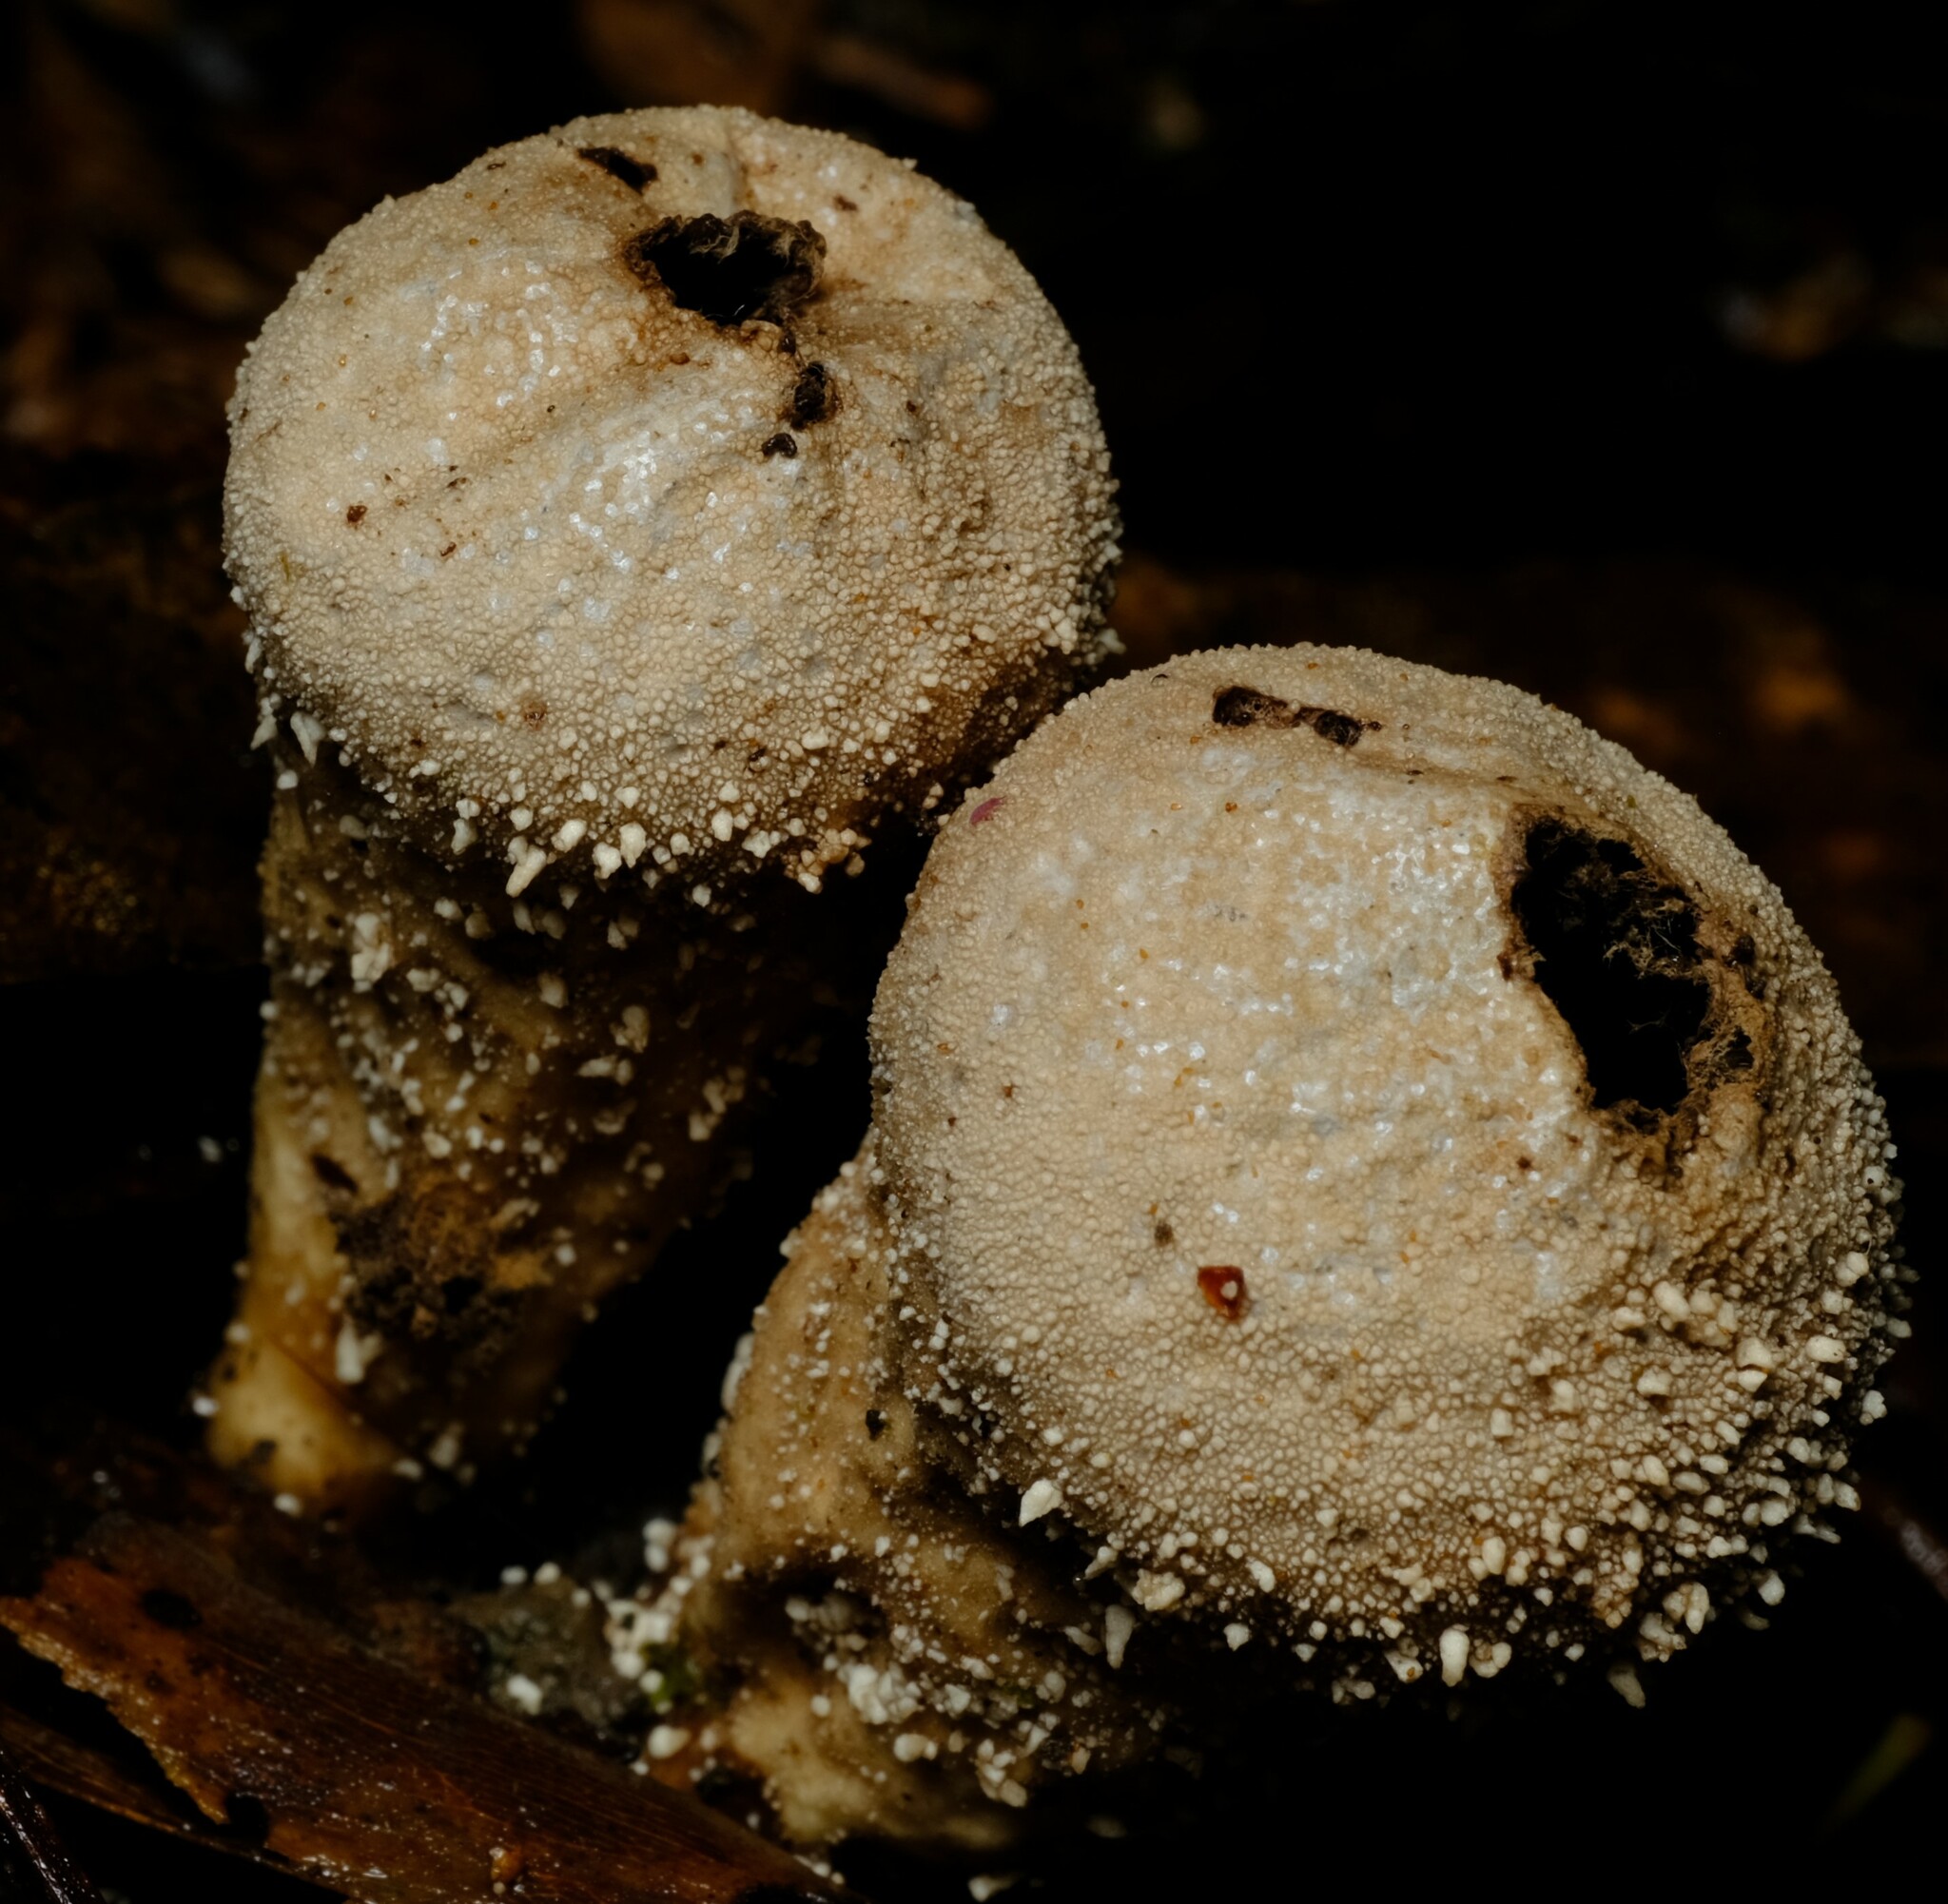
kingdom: Fungi
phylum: Basidiomycota
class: Agaricomycetes
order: Agaricales
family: Lycoperdaceae
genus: Lycoperdon
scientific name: Lycoperdon perlatum
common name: Common puffball
